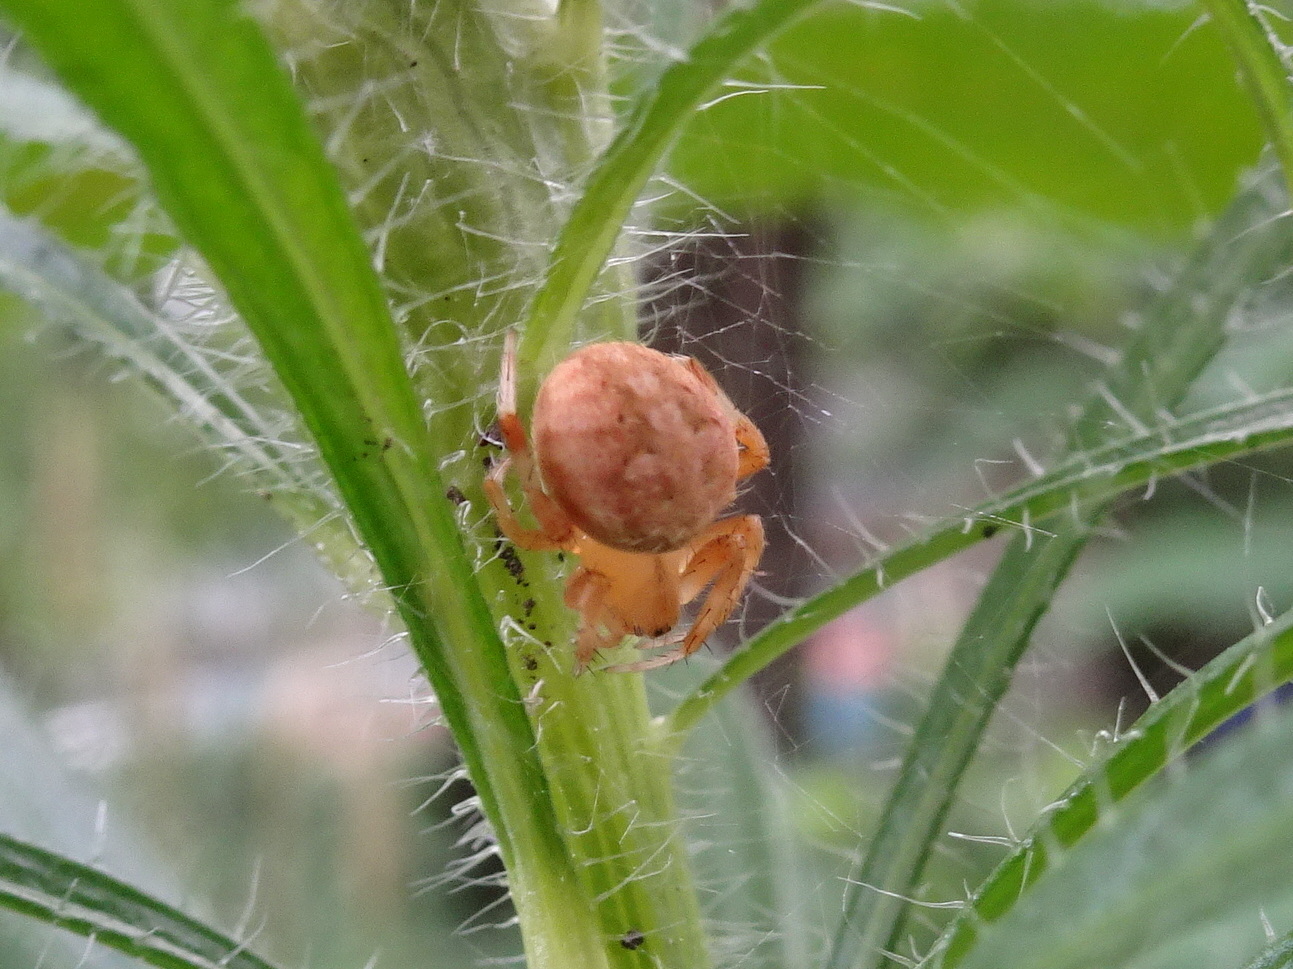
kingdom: Animalia
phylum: Arthropoda
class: Arachnida
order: Araneae
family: Araneidae
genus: Neoscona
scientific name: Neoscona crucifera
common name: Spotted orbweaver
